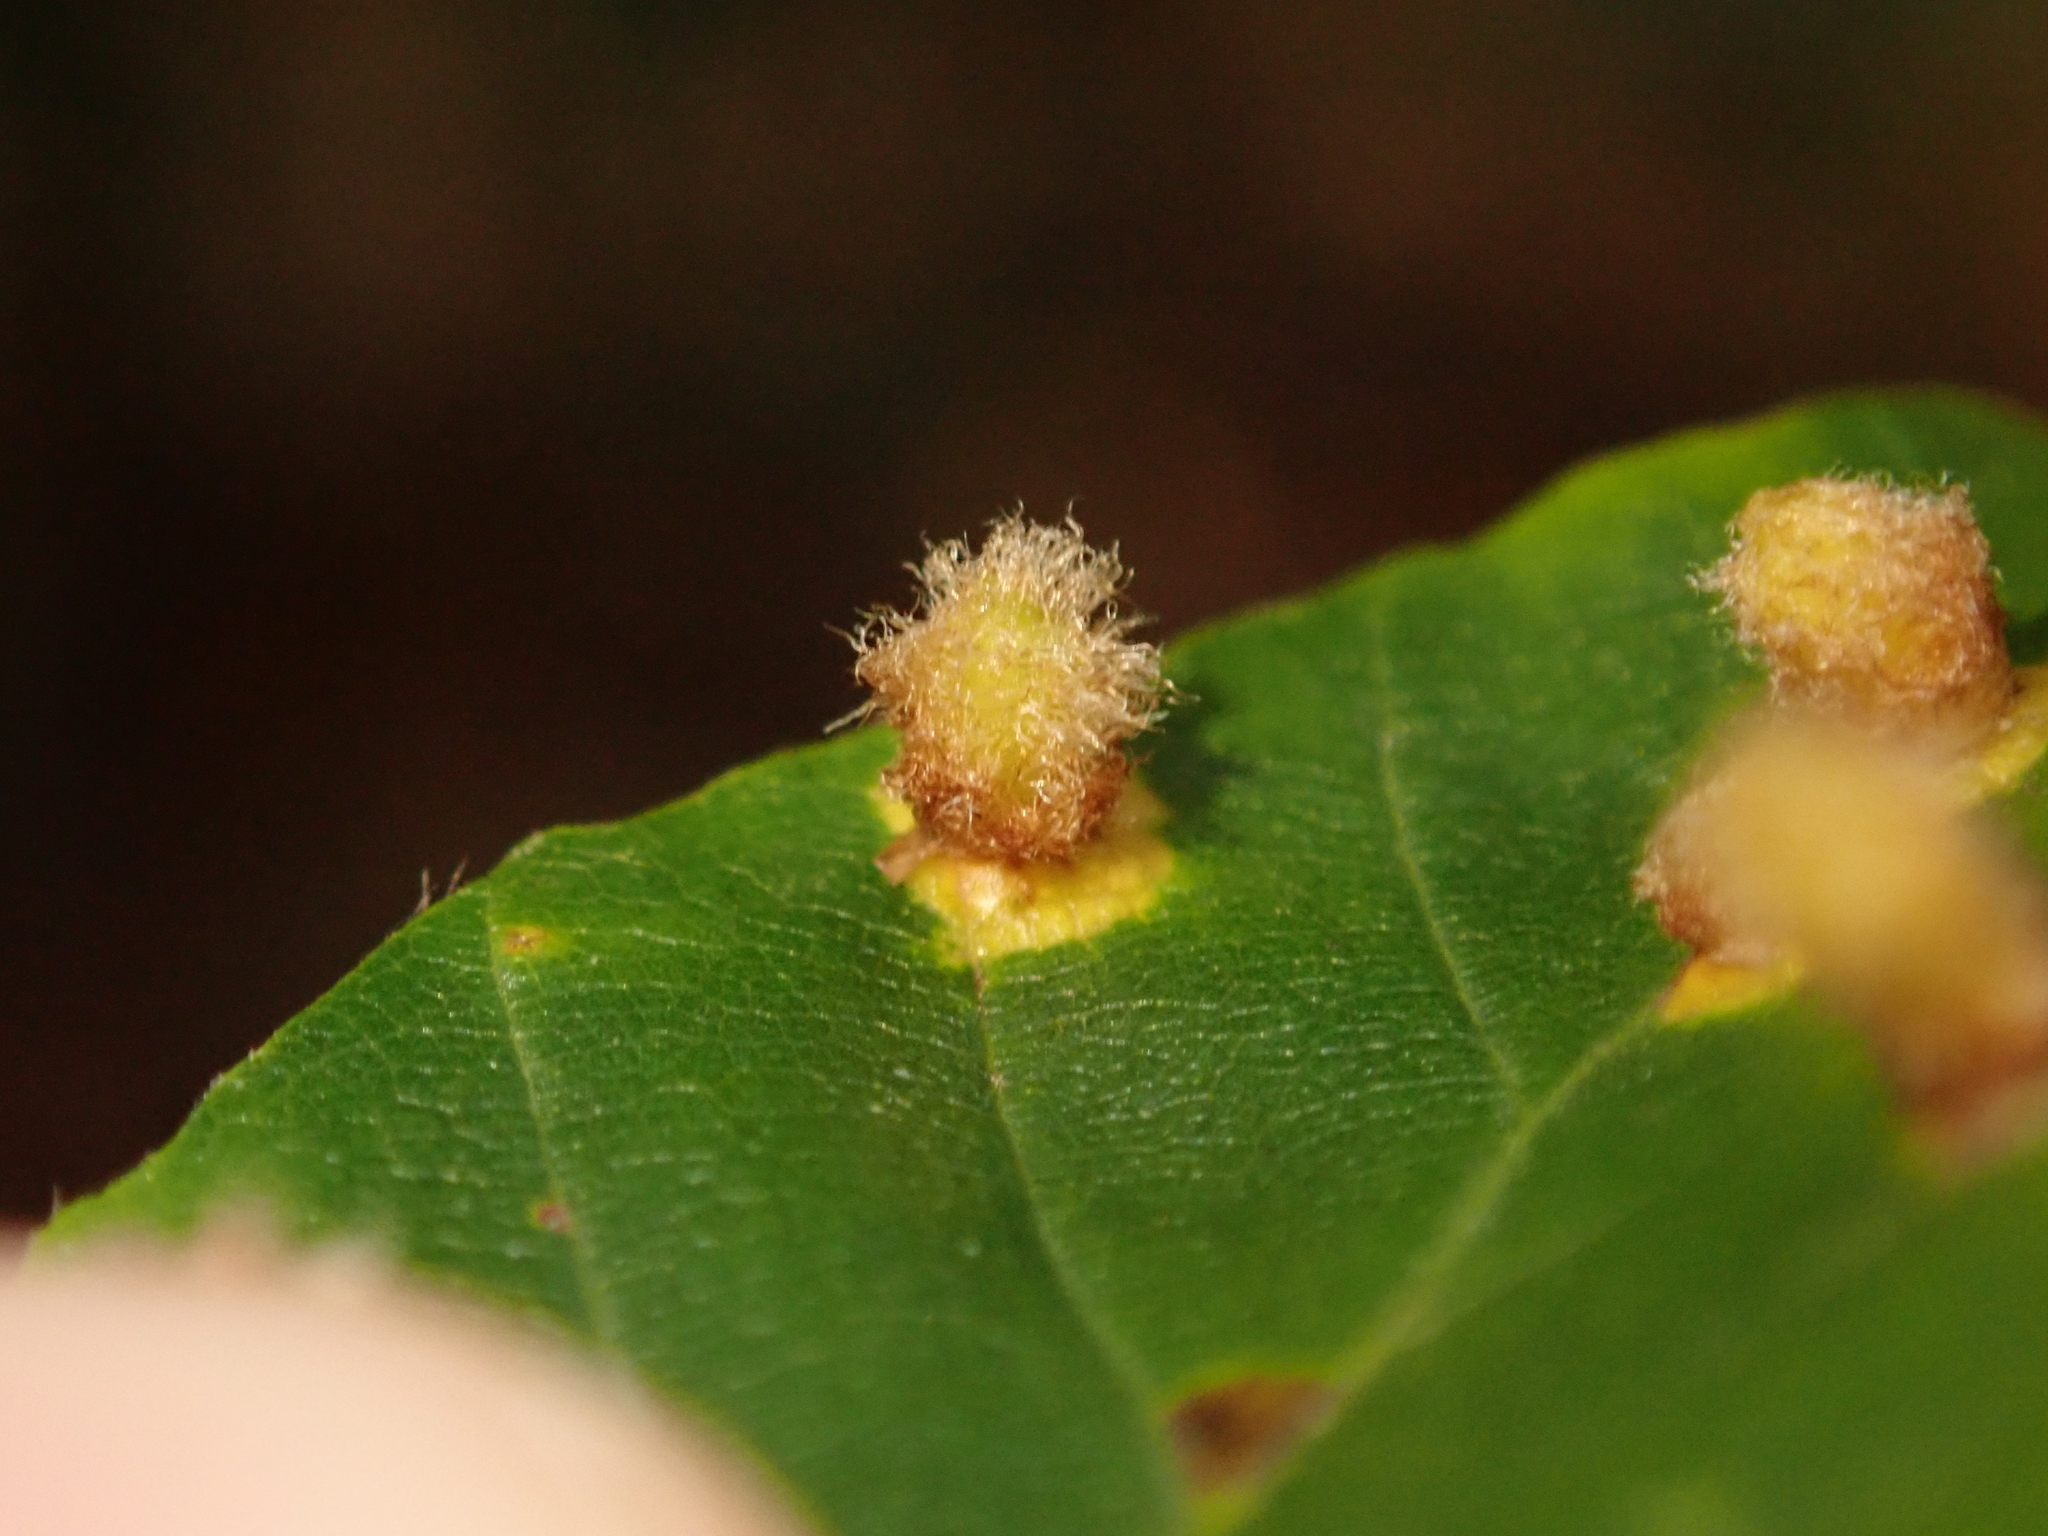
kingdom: Animalia
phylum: Arthropoda
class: Insecta
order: Diptera
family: Cecidomyiidae
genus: Hartigiola
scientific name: Hartigiola annulipes
